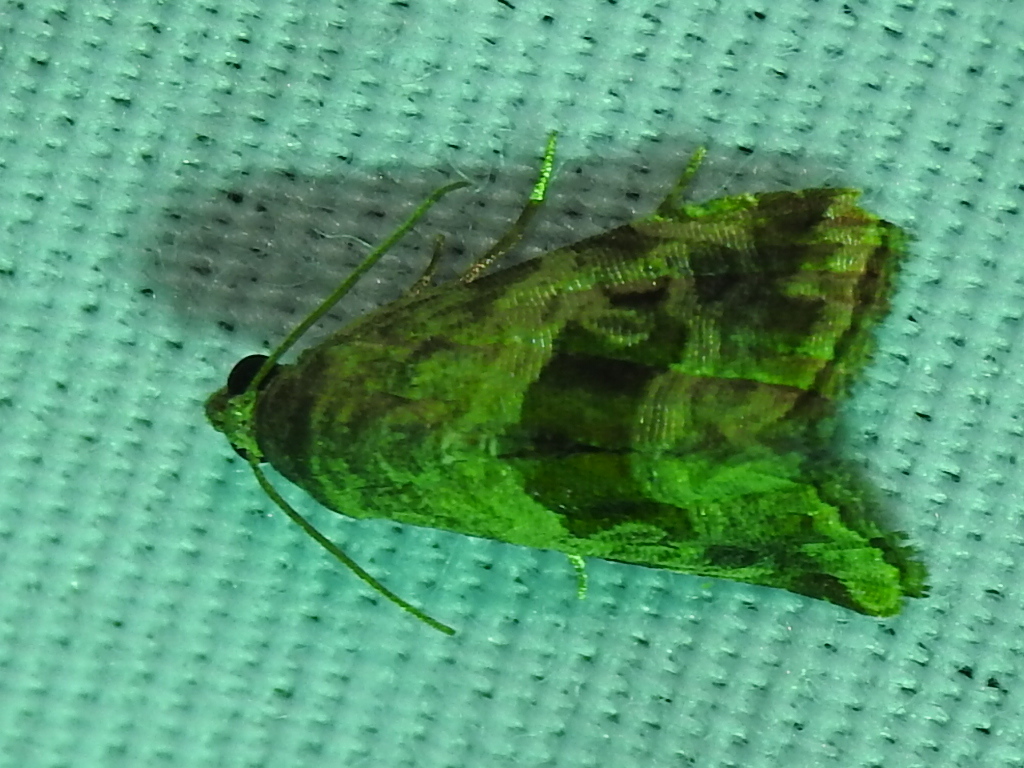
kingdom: Animalia
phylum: Arthropoda
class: Insecta
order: Lepidoptera
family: Noctuidae
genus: Tripudia
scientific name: Tripudia quadrifera
